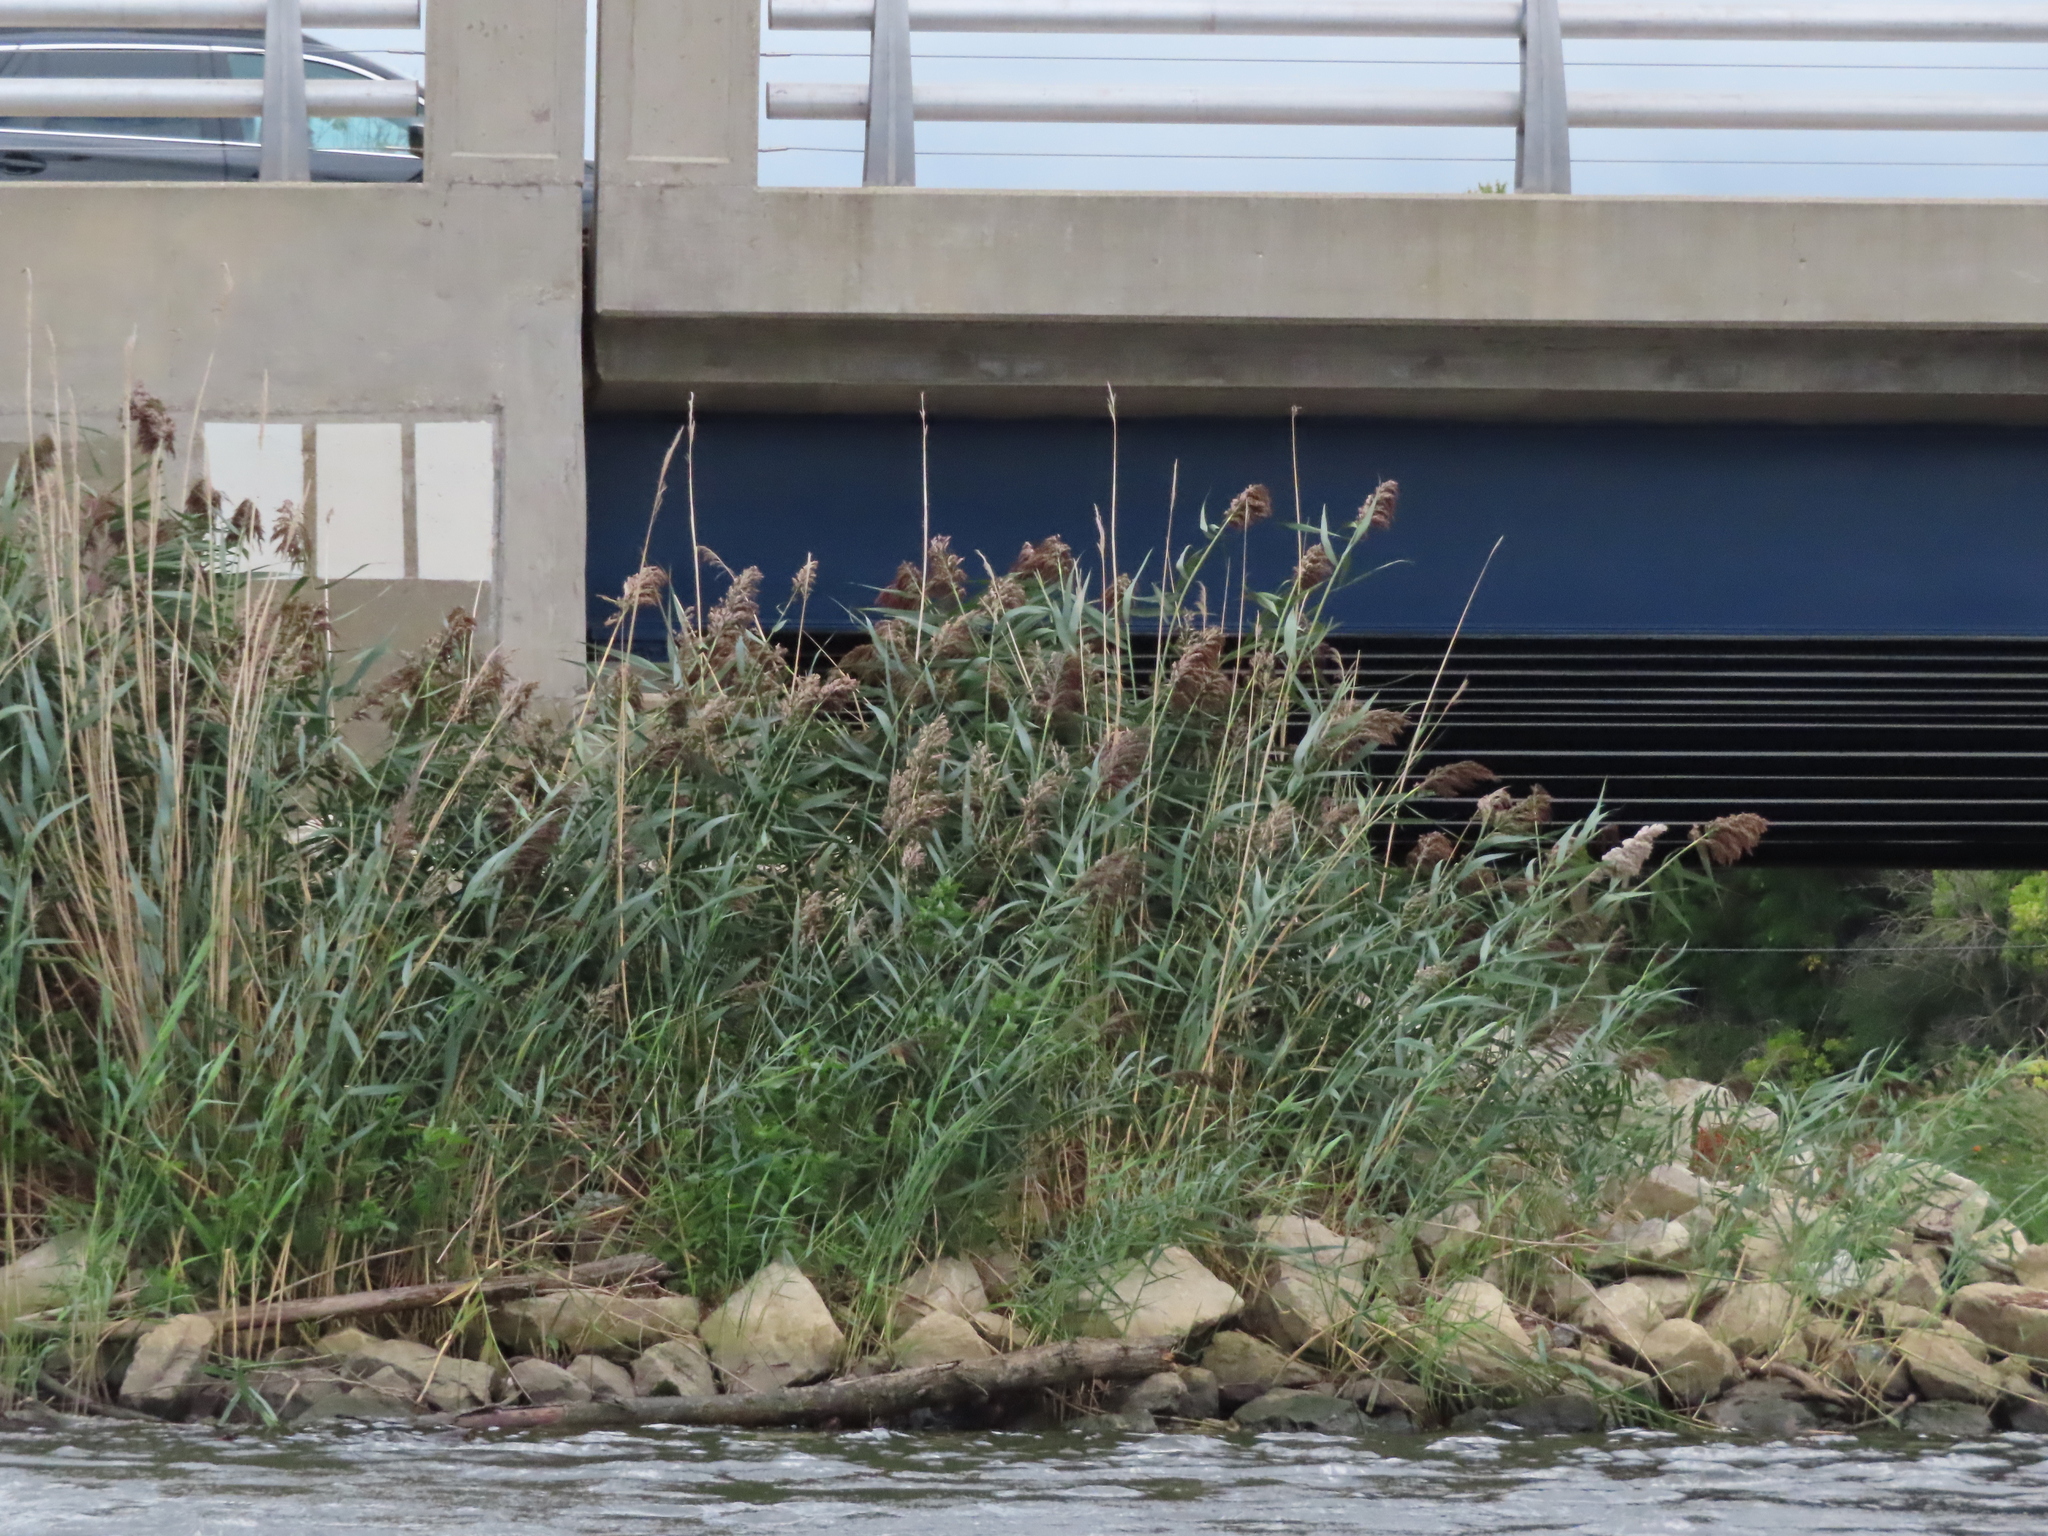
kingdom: Plantae
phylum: Tracheophyta
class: Liliopsida
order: Poales
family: Poaceae
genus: Phragmites
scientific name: Phragmites australis
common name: Common reed
